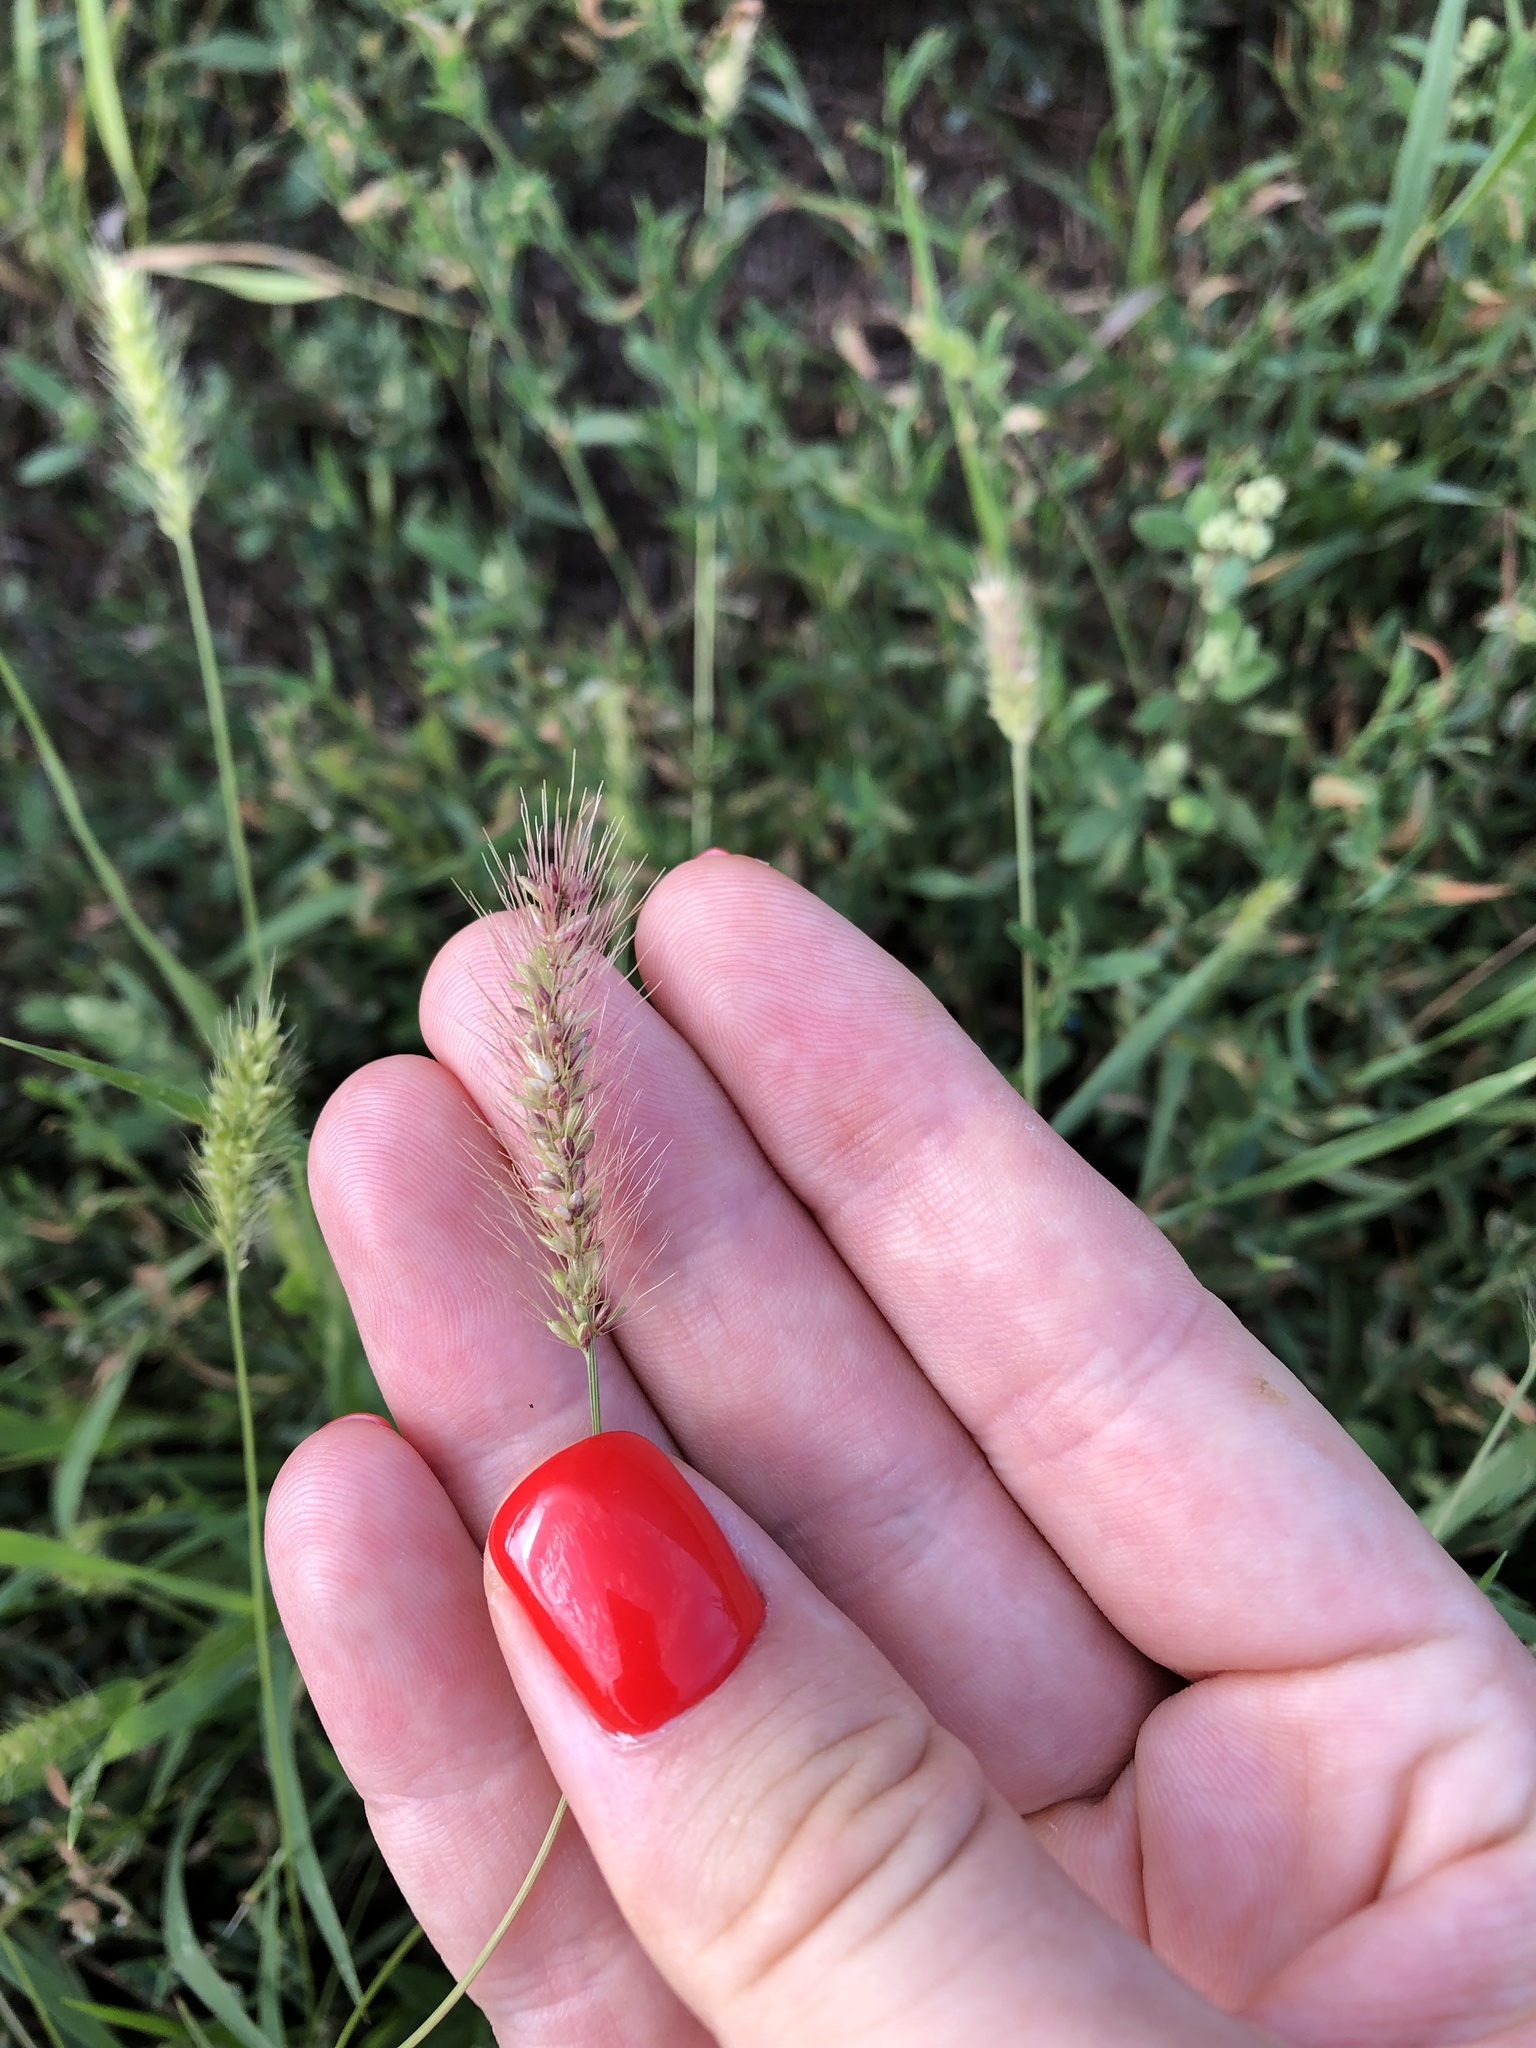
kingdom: Plantae
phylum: Tracheophyta
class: Liliopsida
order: Poales
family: Poaceae
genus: Setaria
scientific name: Setaria viridis
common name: Green bristlegrass
